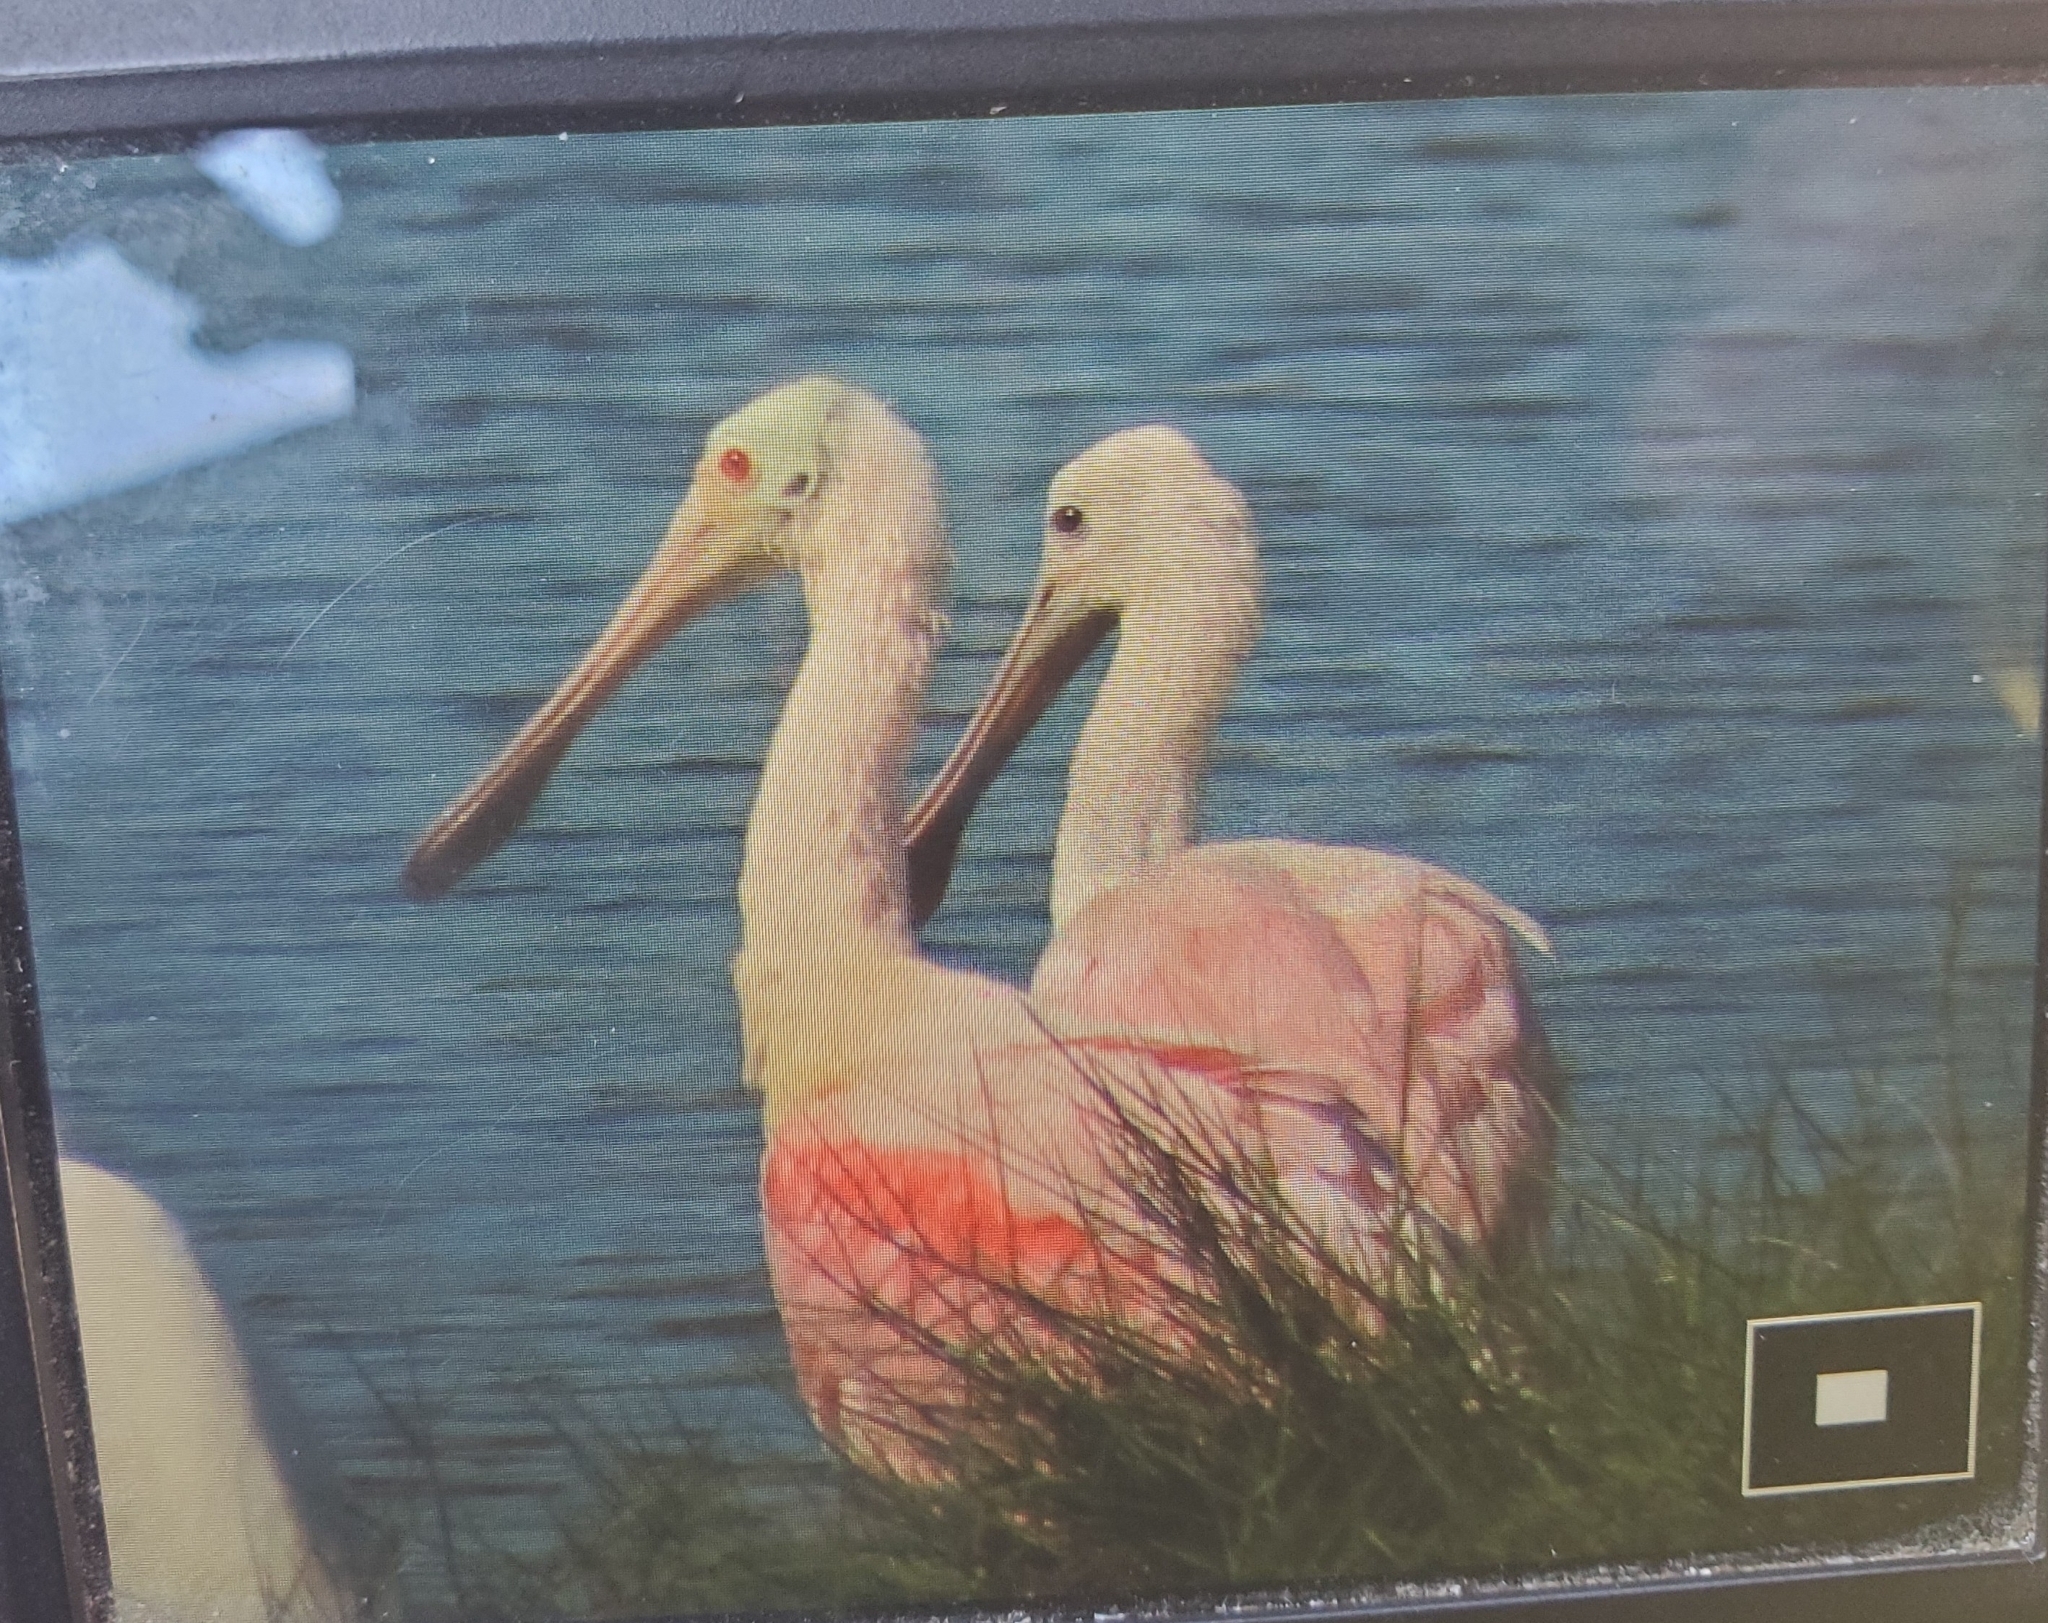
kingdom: Animalia
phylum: Chordata
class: Aves
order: Pelecaniformes
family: Threskiornithidae
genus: Platalea
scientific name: Platalea ajaja
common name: Roseate spoonbill
